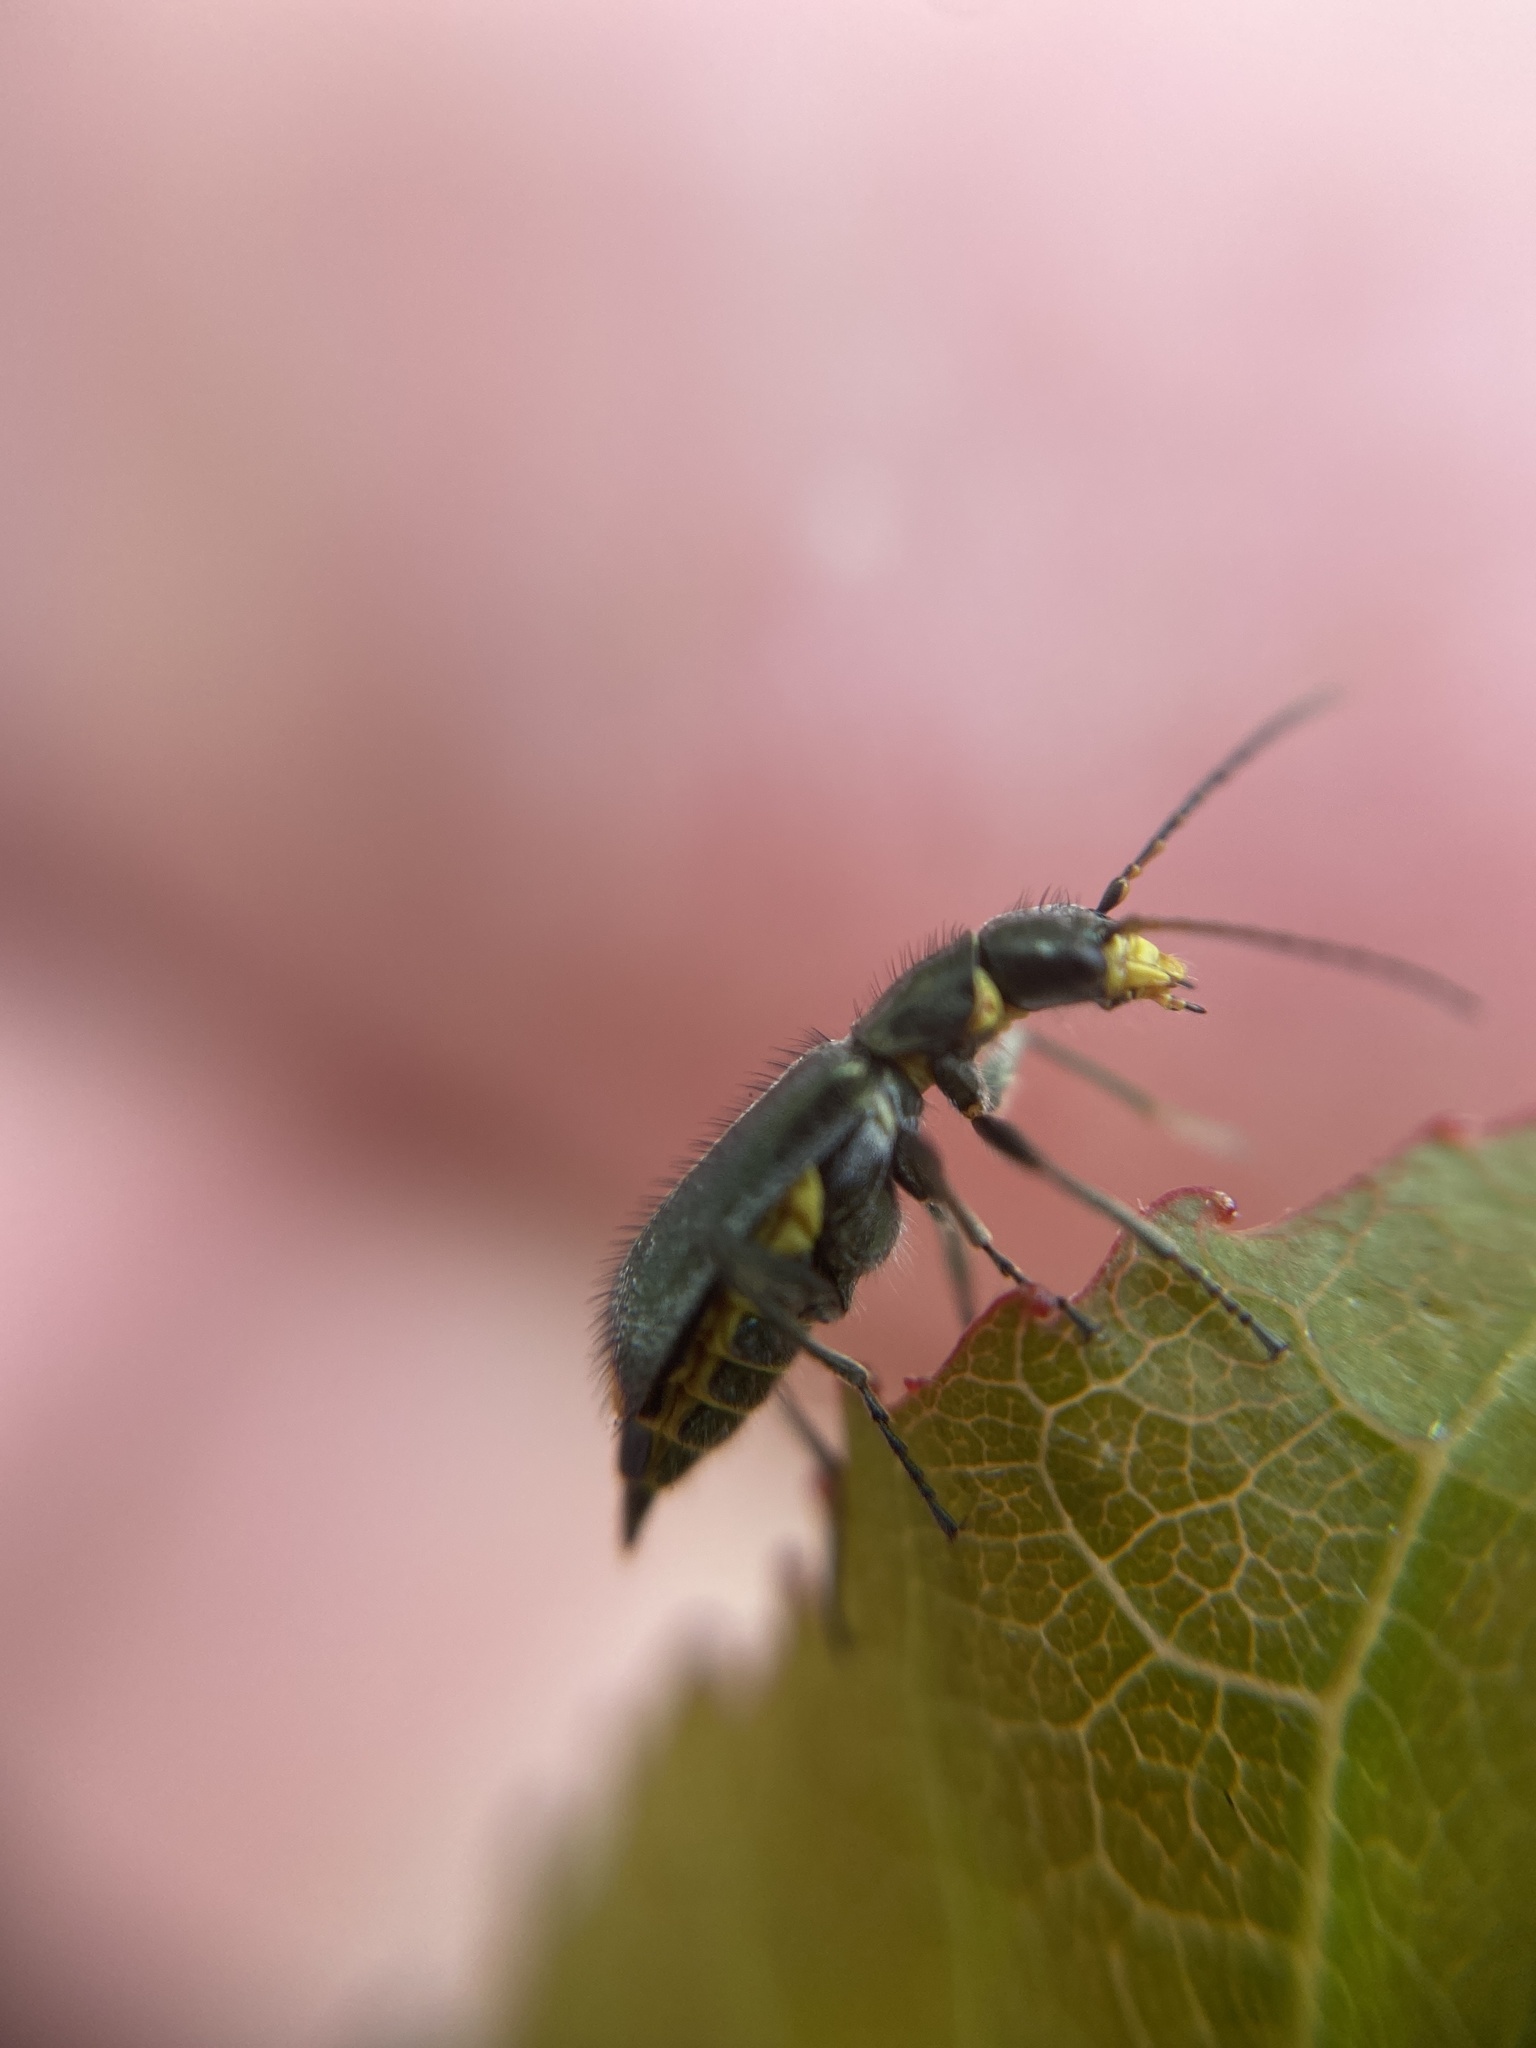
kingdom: Animalia
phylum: Arthropoda
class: Insecta
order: Coleoptera
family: Malachiidae
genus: Clanoptilus
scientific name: Clanoptilus marginellus
